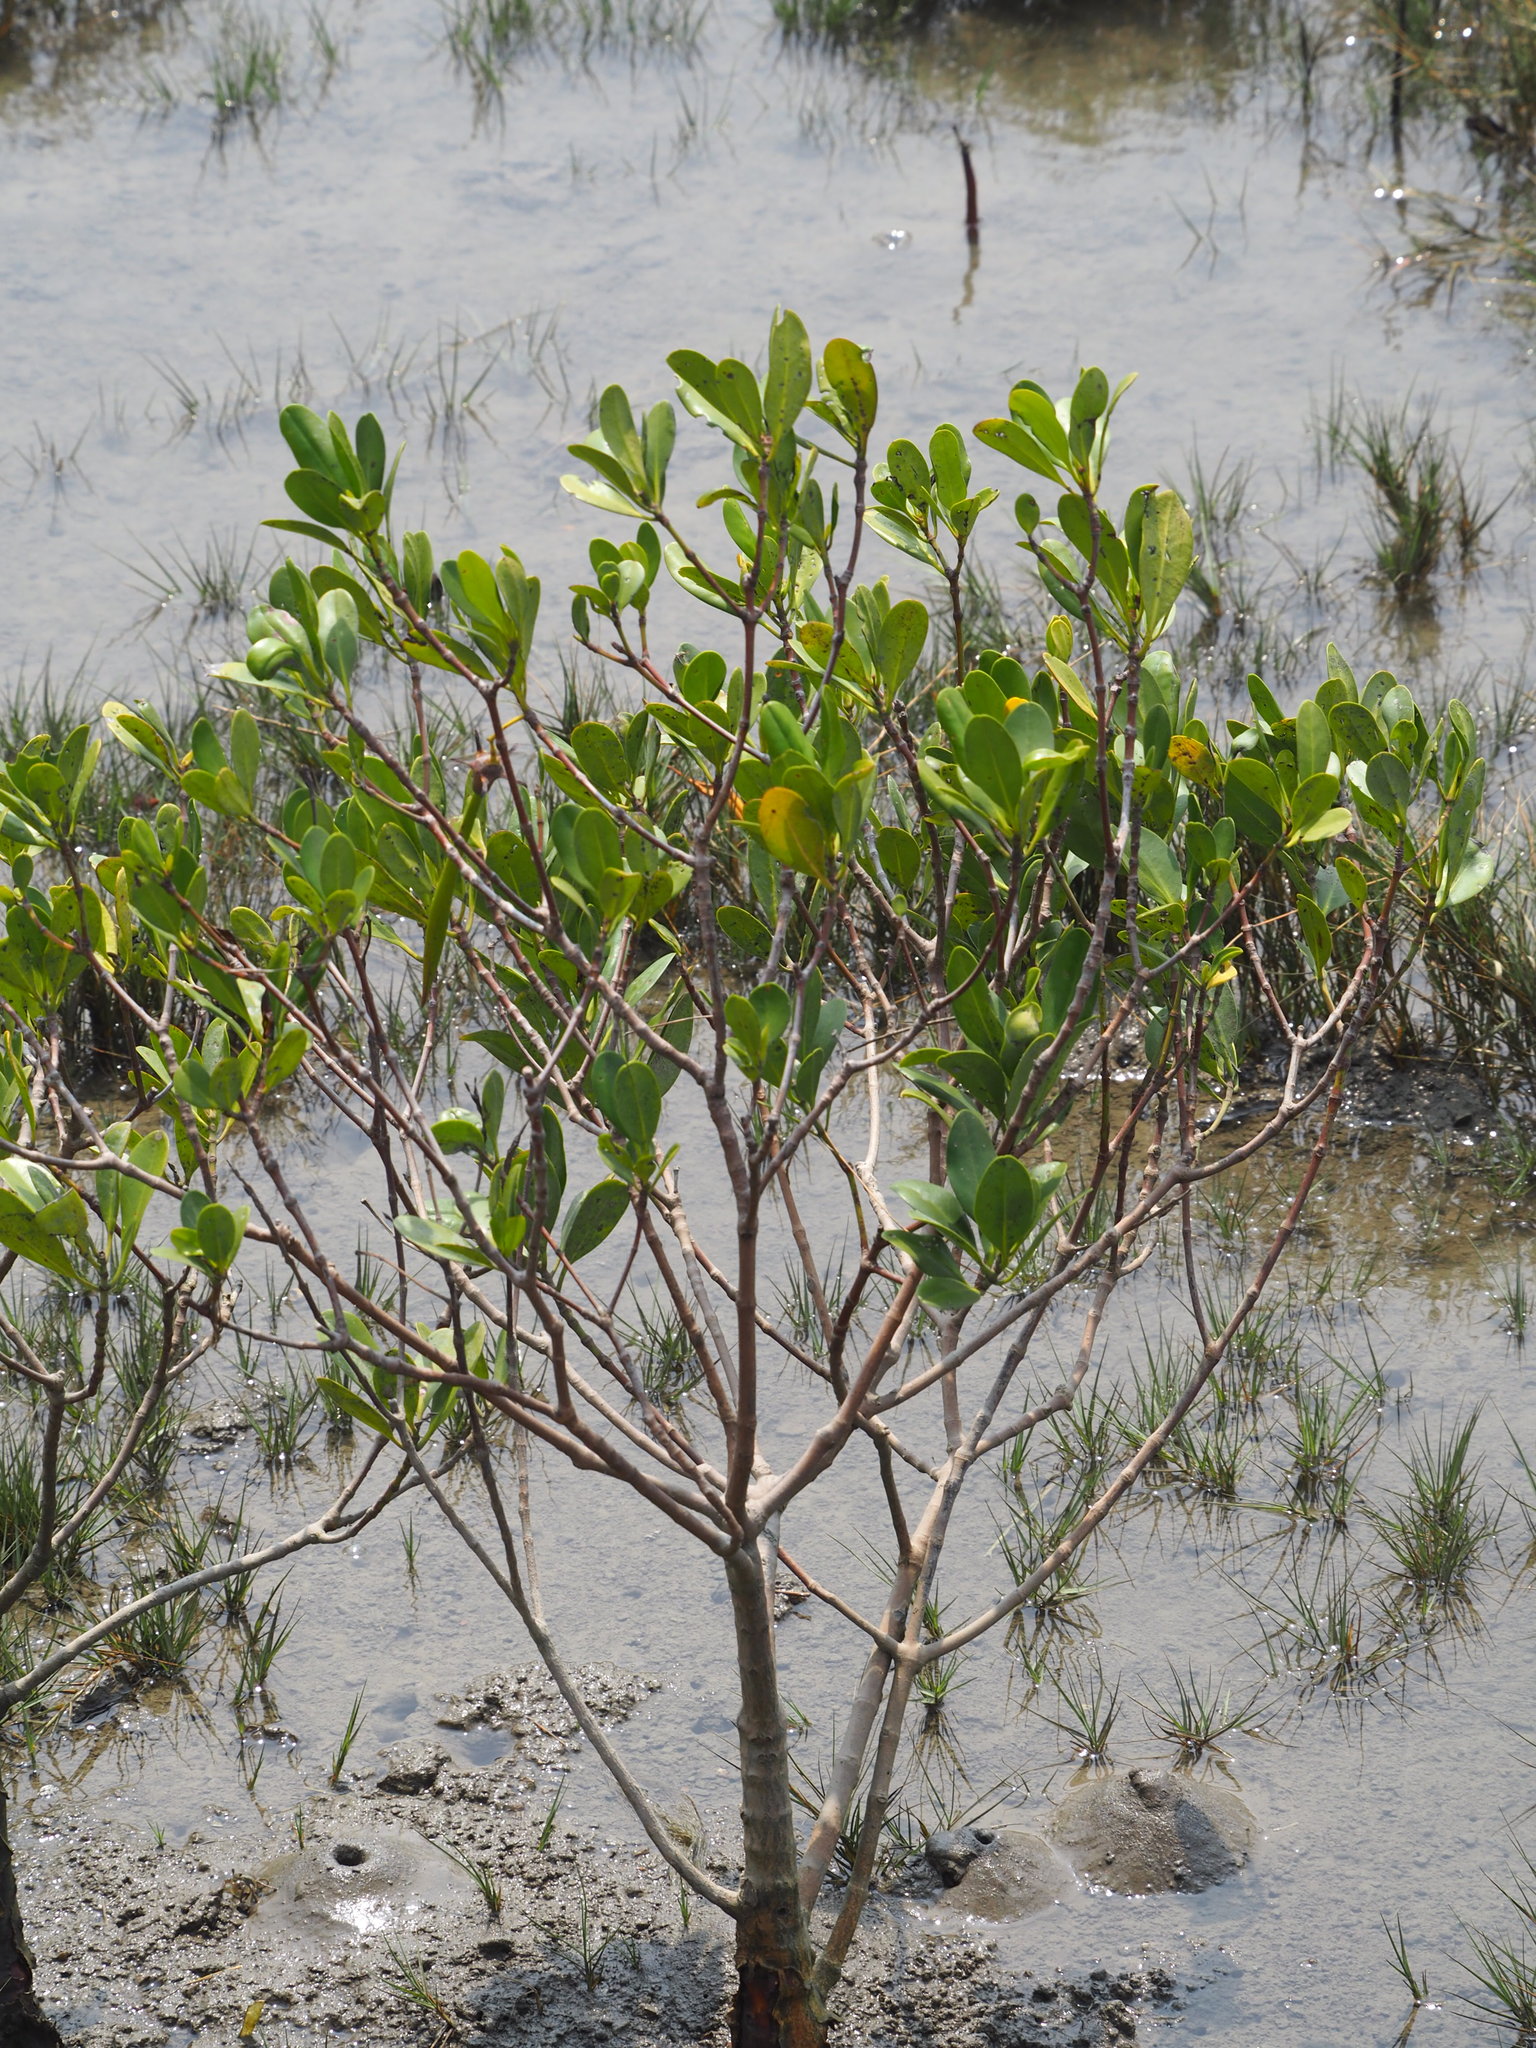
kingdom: Plantae
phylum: Tracheophyta
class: Magnoliopsida
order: Malpighiales
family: Rhizophoraceae
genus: Kandelia
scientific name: Kandelia obovata
